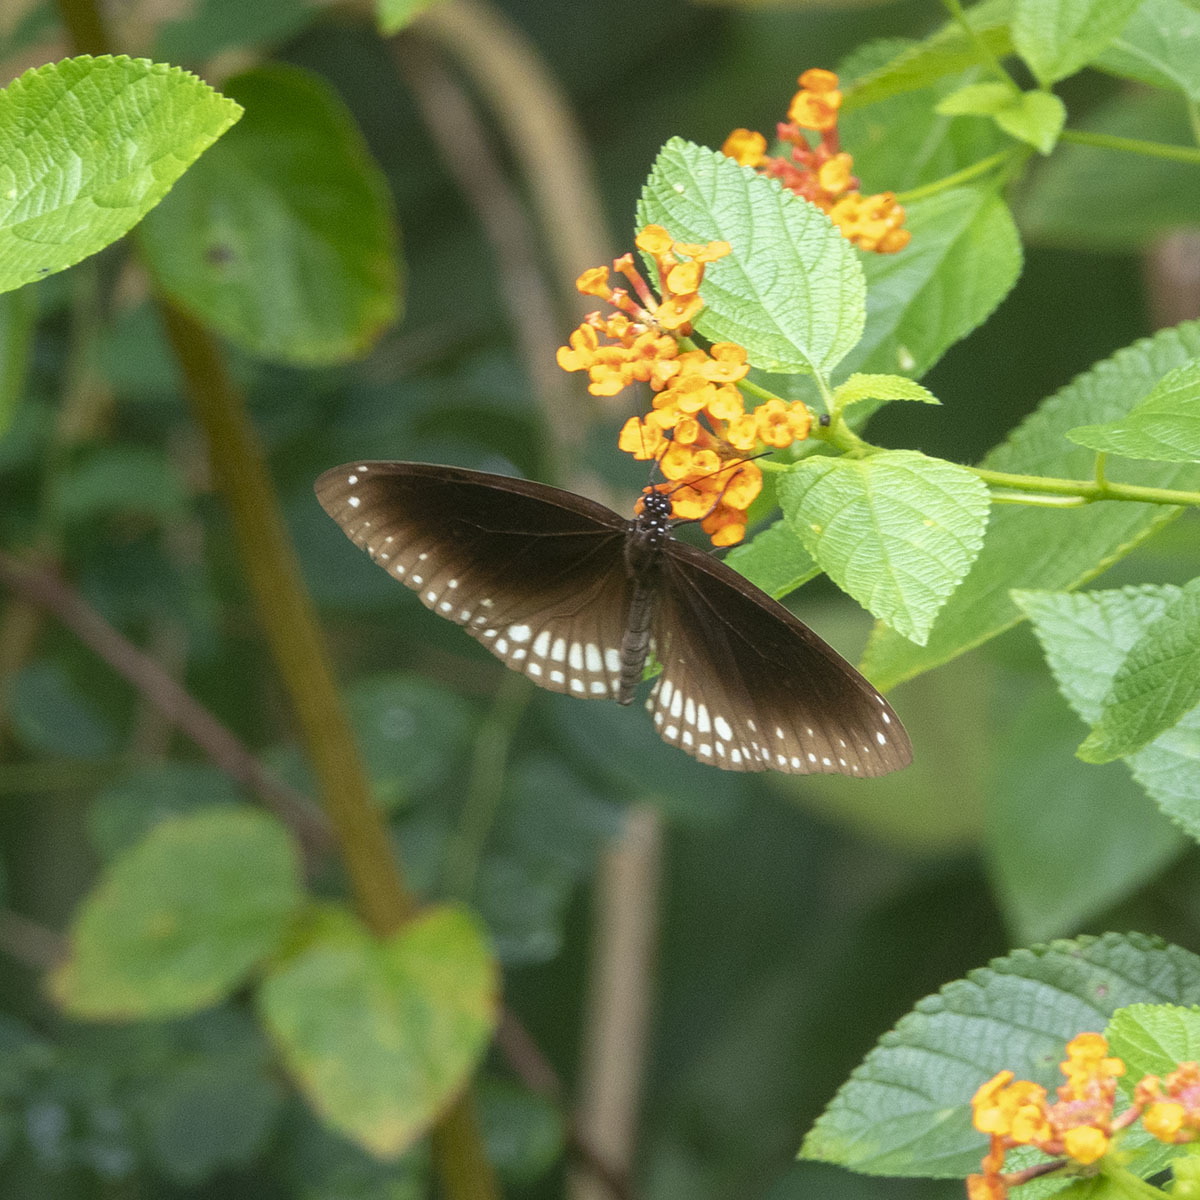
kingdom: Animalia
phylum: Arthropoda
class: Insecta
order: Lepidoptera
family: Nymphalidae
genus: Euploea
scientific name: Euploea core
